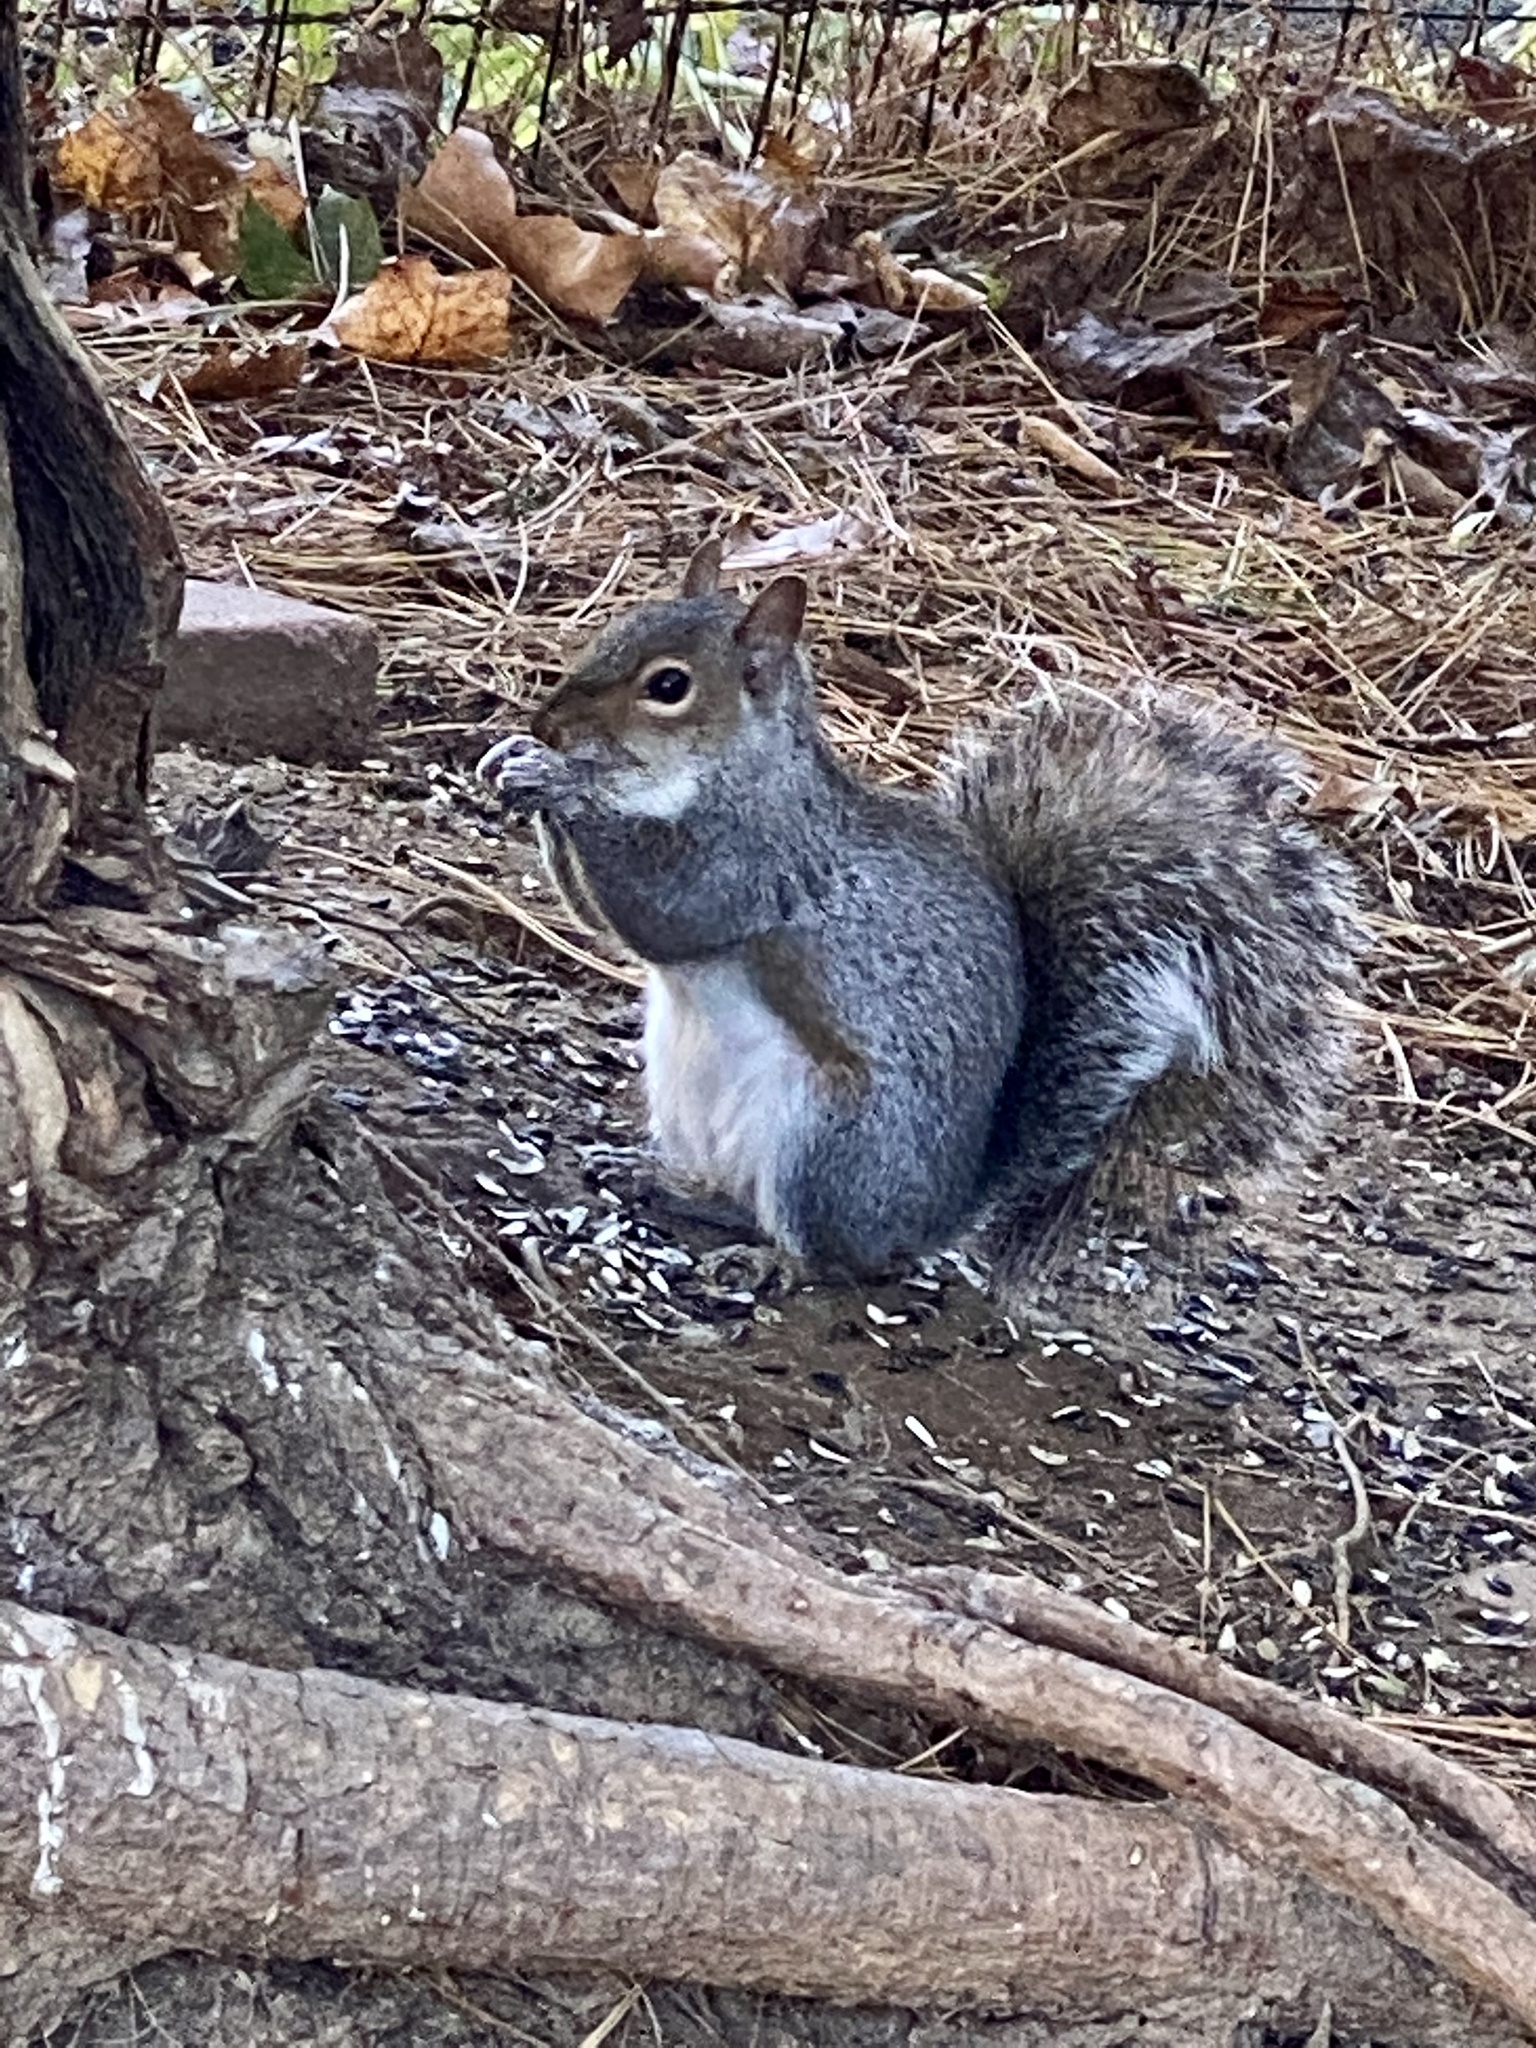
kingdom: Animalia
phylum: Chordata
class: Mammalia
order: Rodentia
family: Sciuridae
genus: Sciurus
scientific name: Sciurus carolinensis
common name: Eastern gray squirrel
